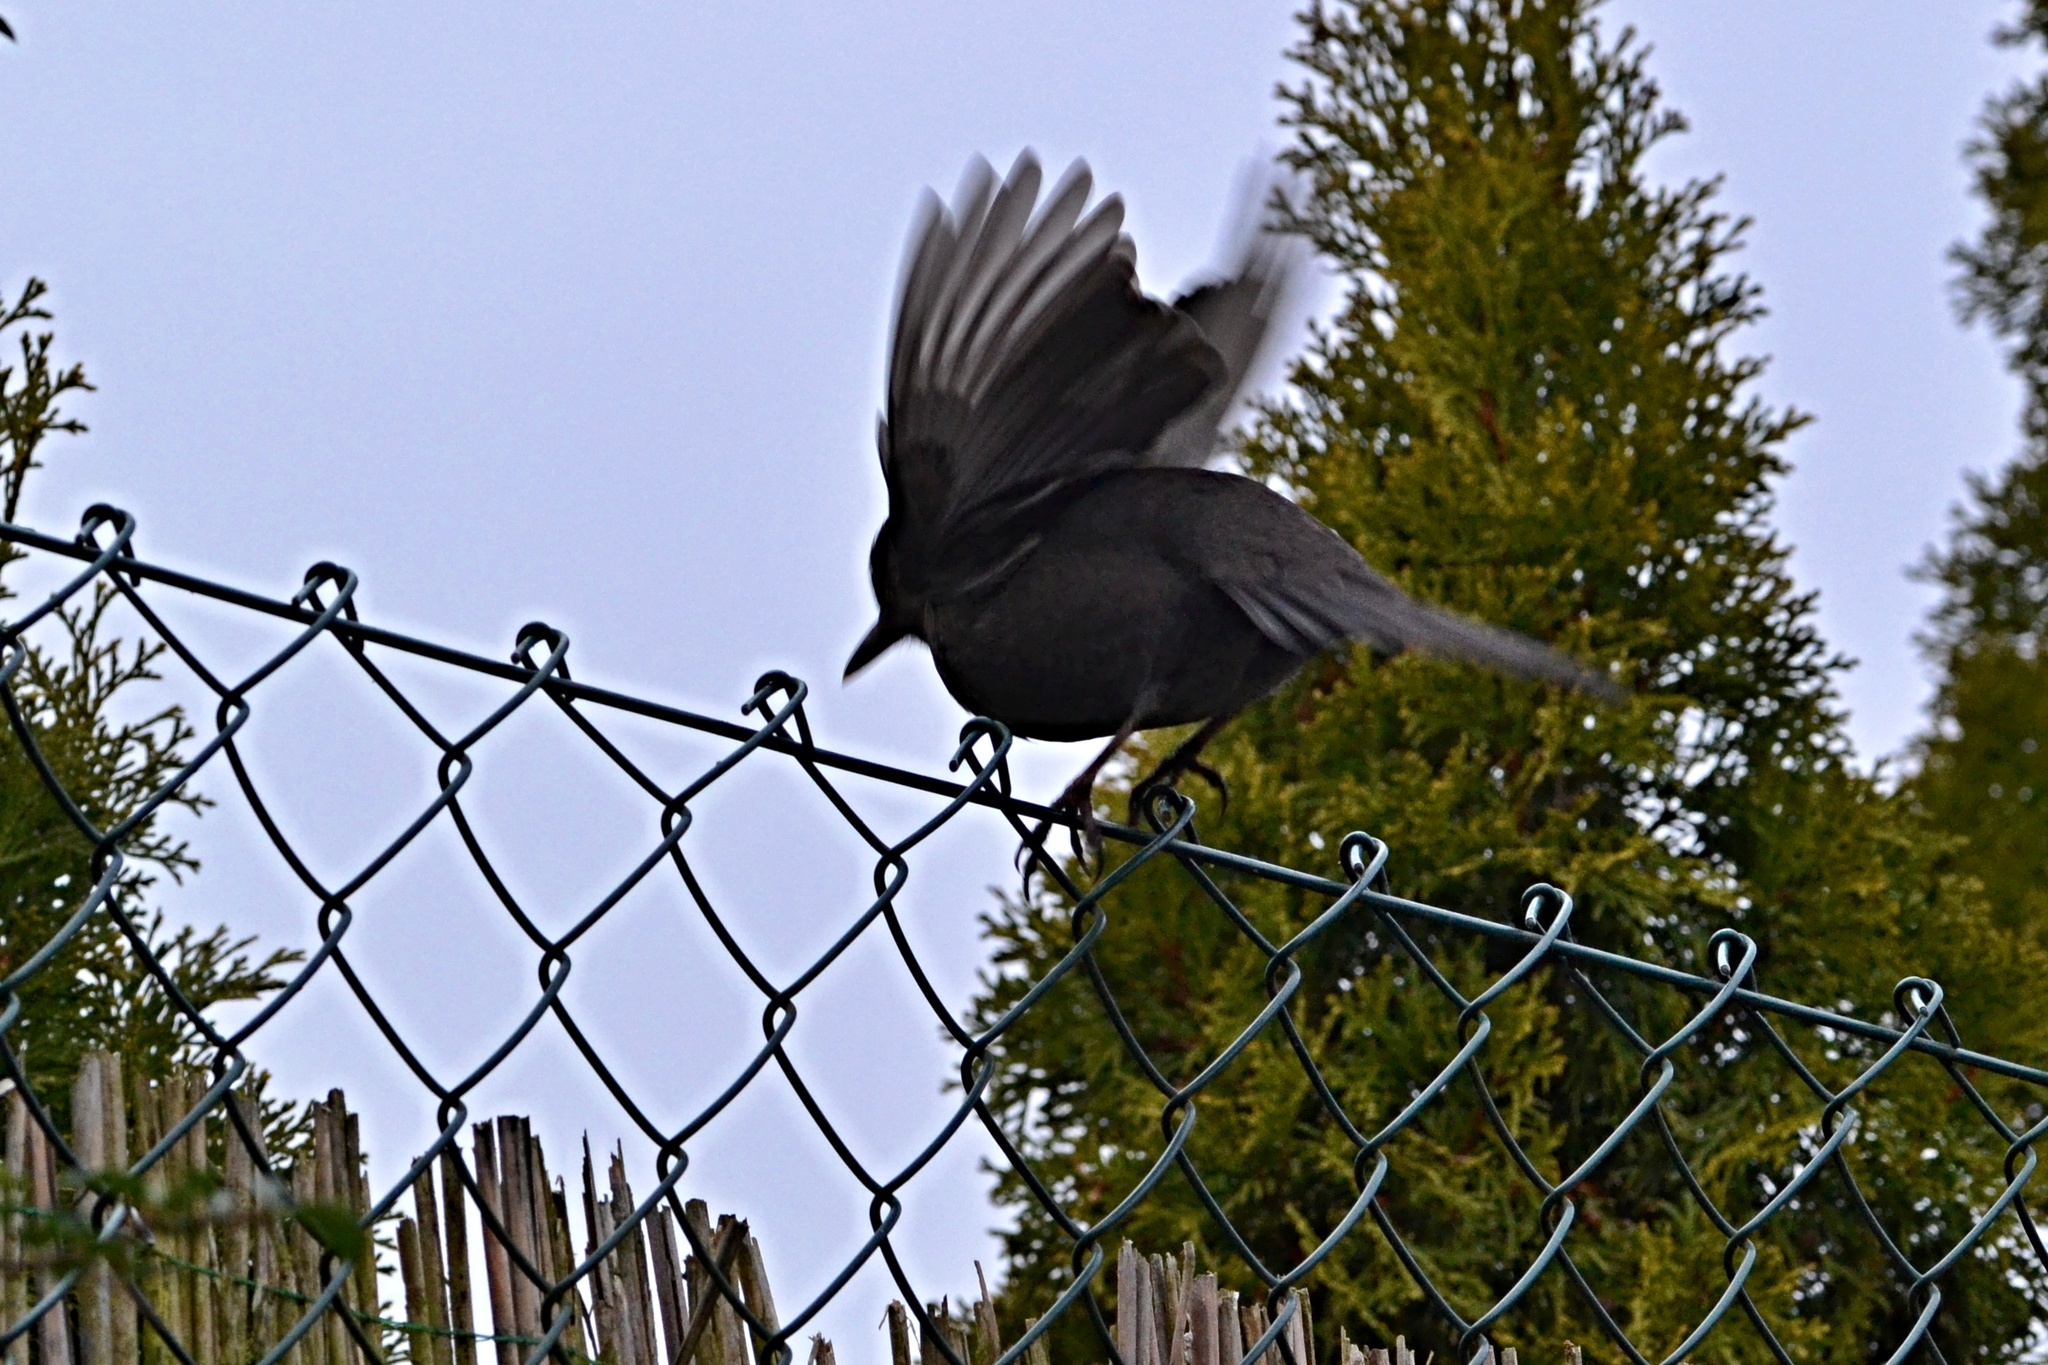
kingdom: Animalia
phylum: Chordata
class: Aves
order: Passeriformes
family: Turdidae
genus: Turdus
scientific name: Turdus merula
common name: Common blackbird
